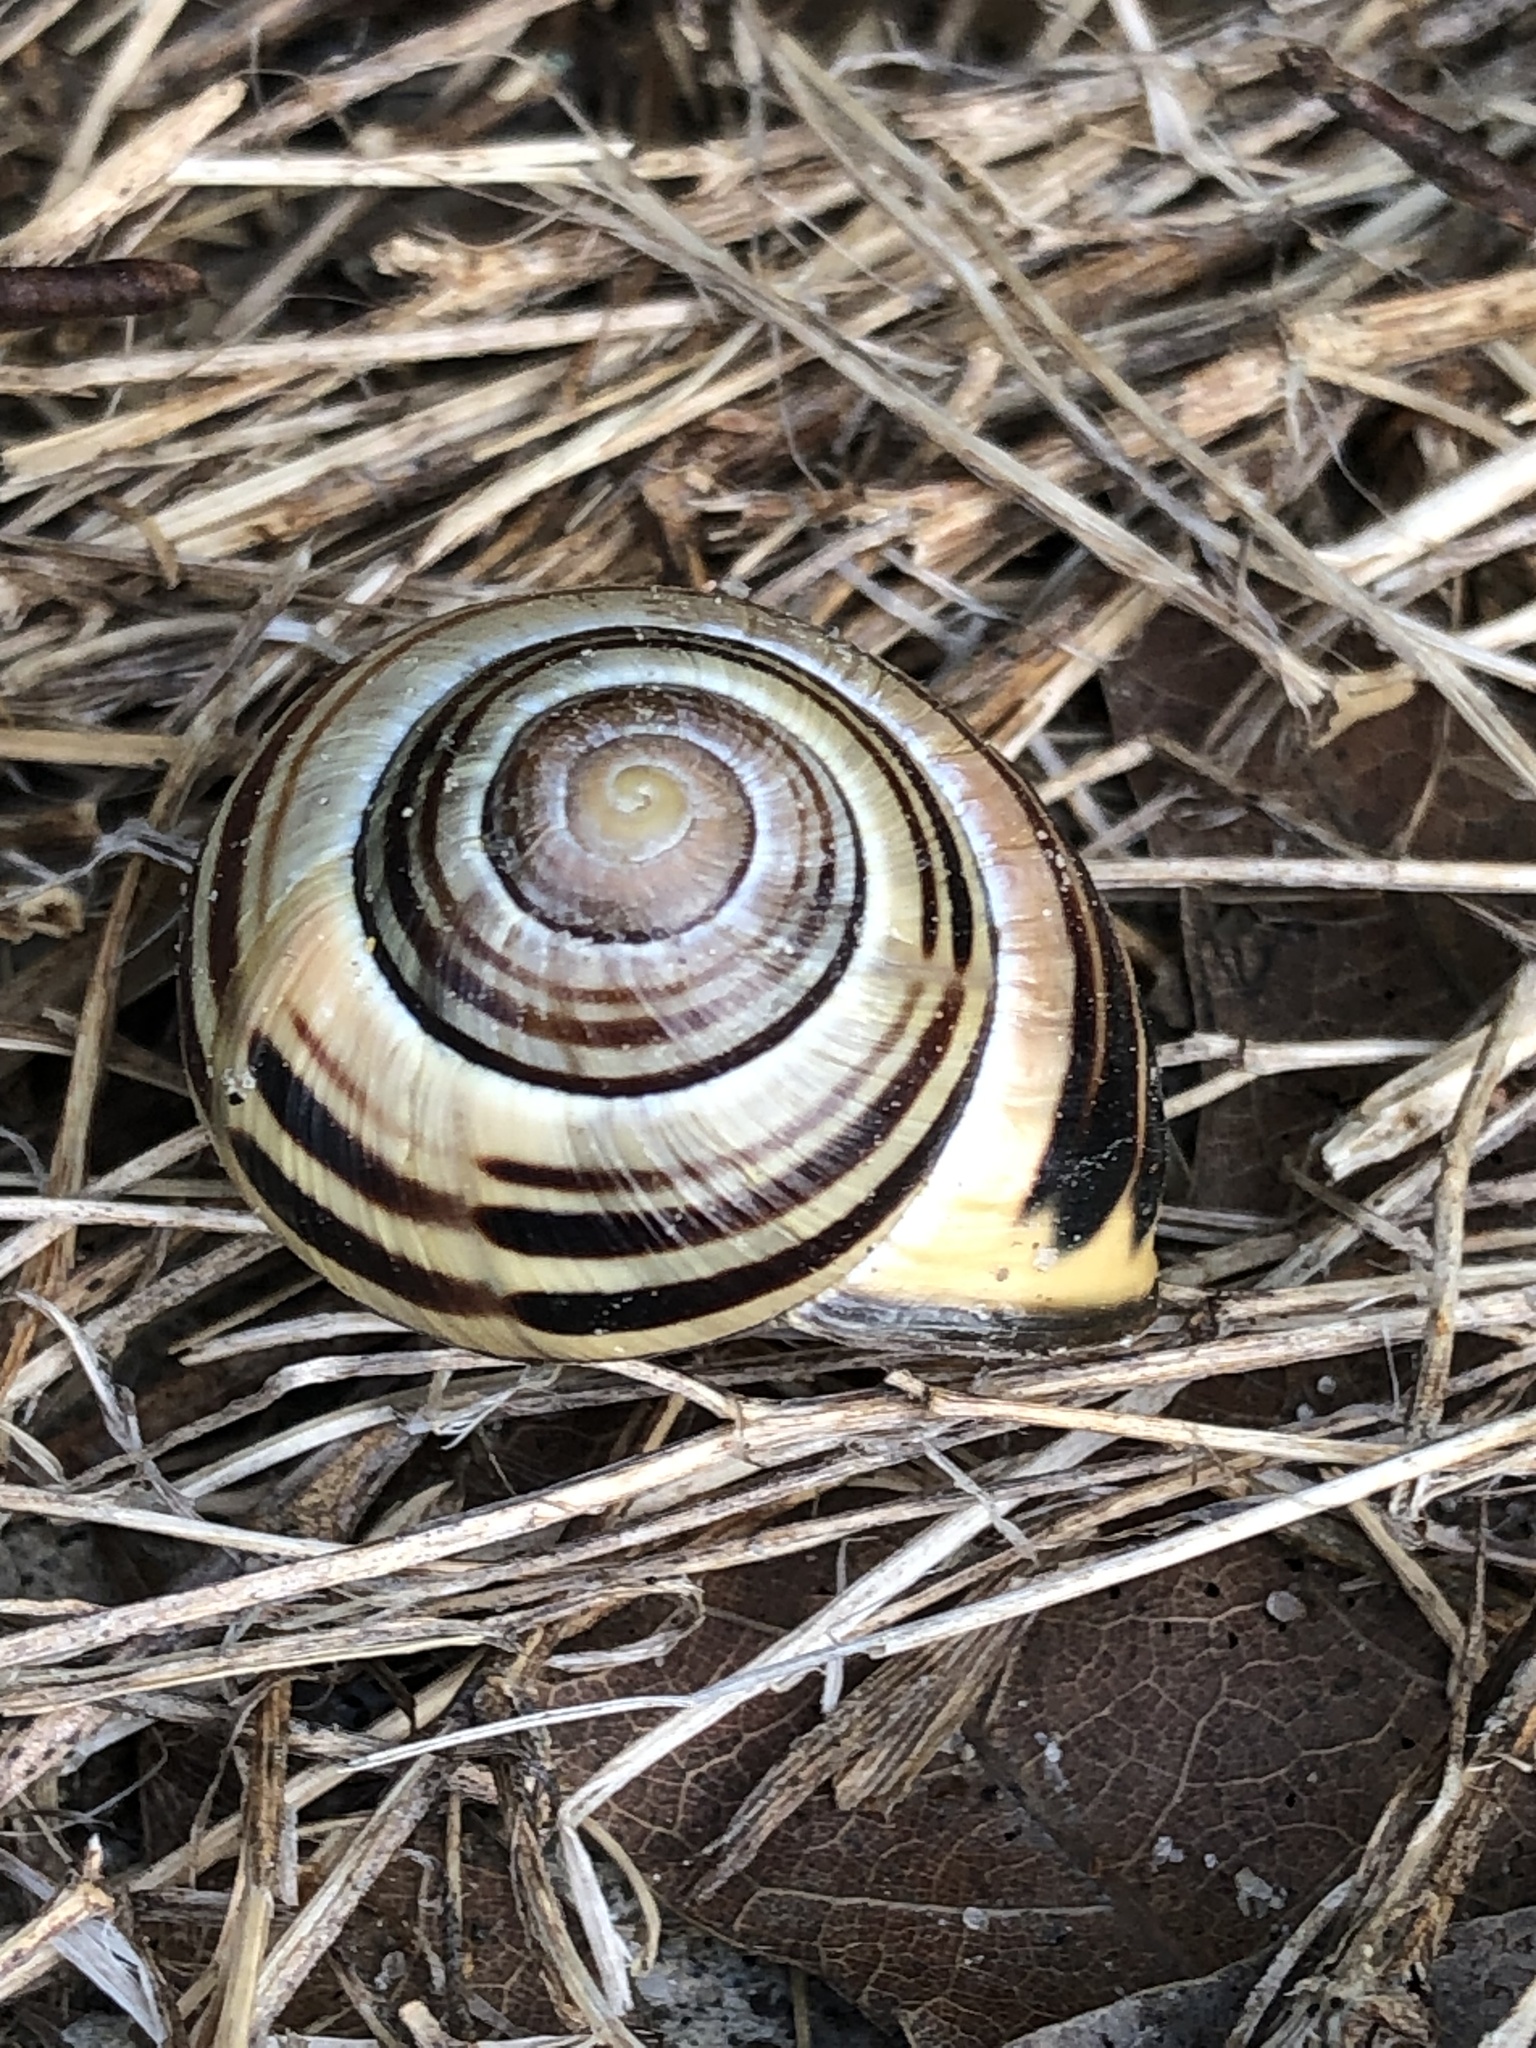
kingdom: Animalia
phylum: Mollusca
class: Gastropoda
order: Stylommatophora
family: Helicidae
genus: Cepaea
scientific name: Cepaea nemoralis
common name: Grovesnail
